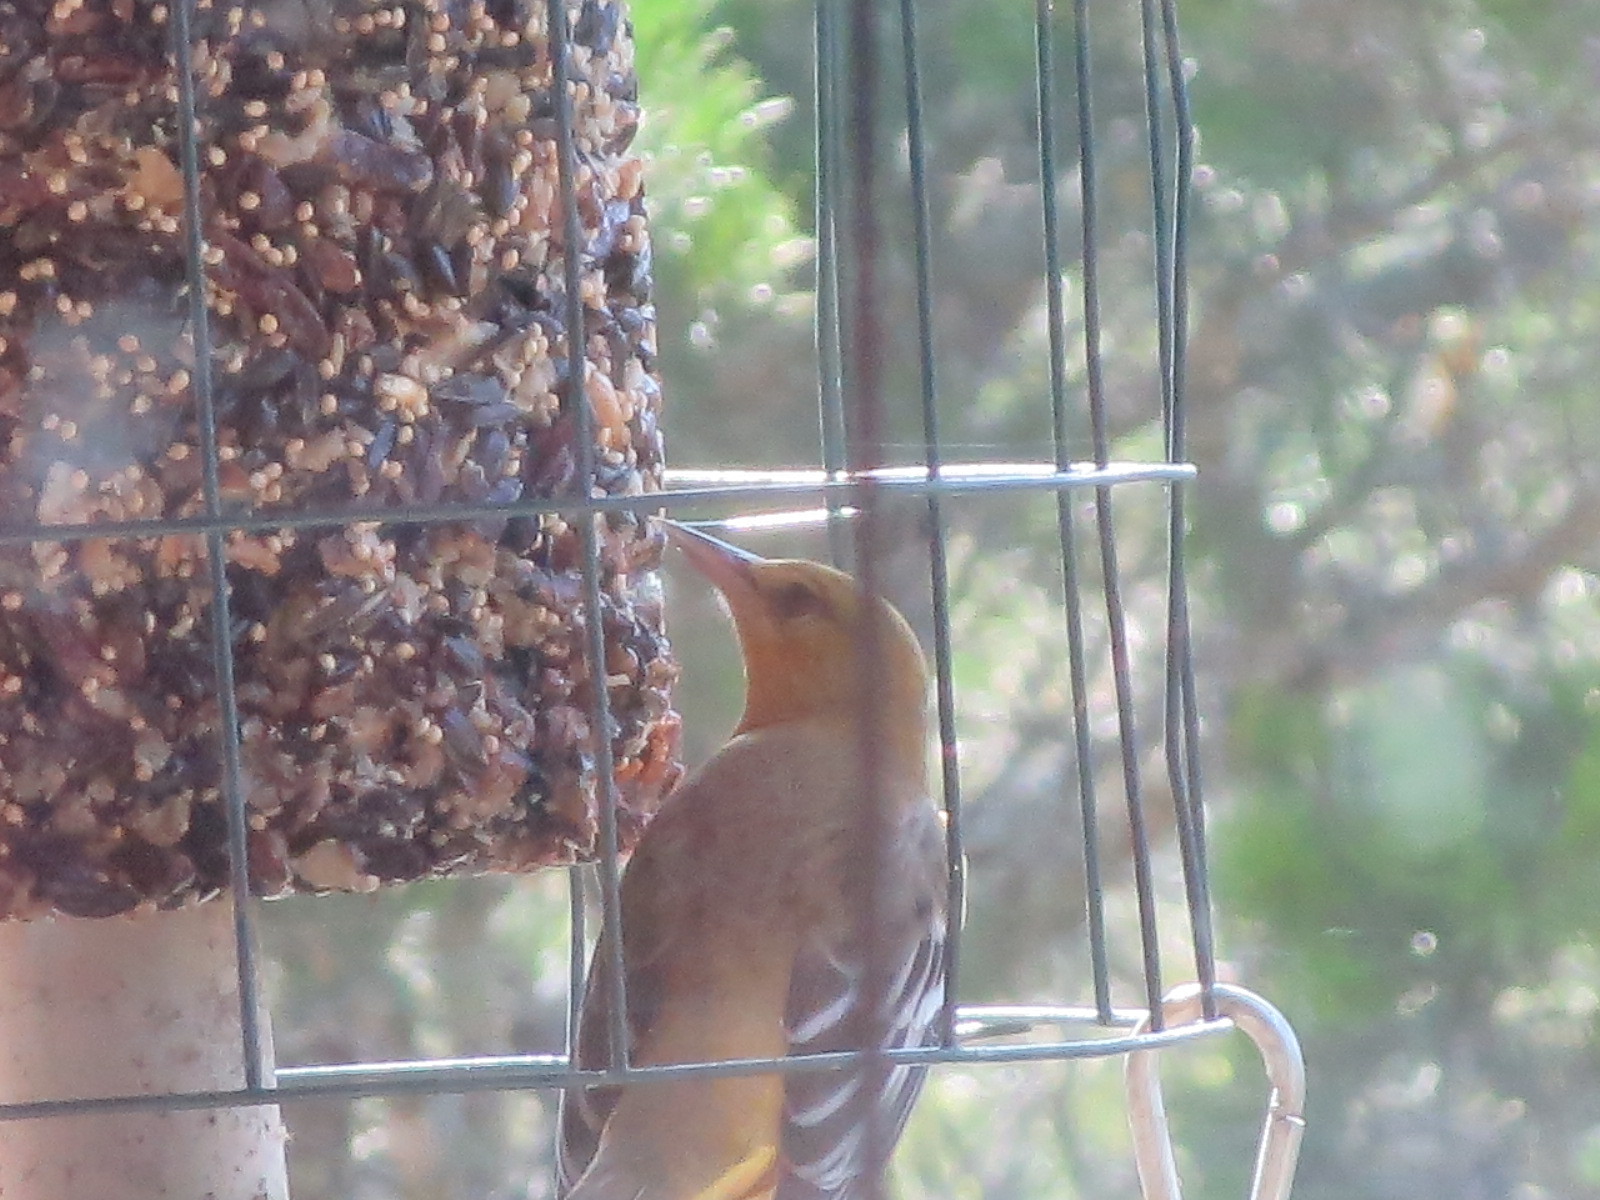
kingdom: Animalia
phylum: Chordata
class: Aves
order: Passeriformes
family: Icteridae
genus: Icterus
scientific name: Icterus galbula
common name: Baltimore oriole
